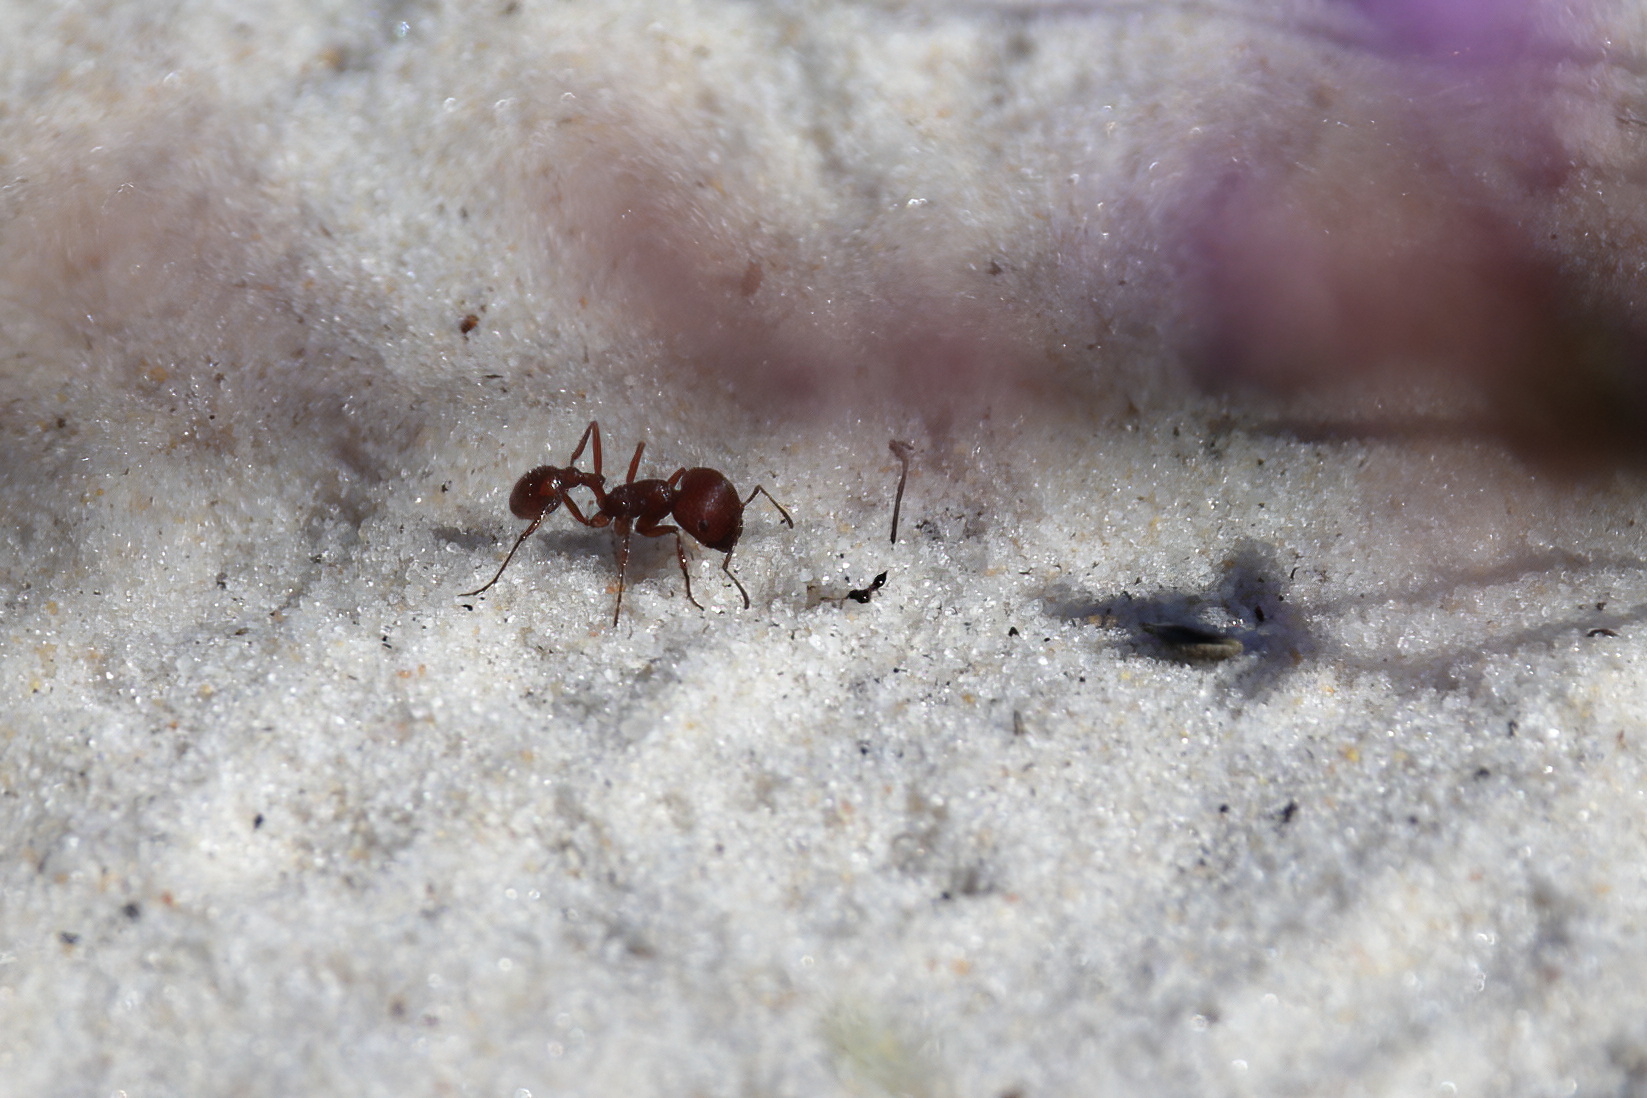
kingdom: Animalia
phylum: Arthropoda
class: Insecta
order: Hymenoptera
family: Formicidae
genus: Pogonomyrmex
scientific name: Pogonomyrmex badius
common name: Florida harvester ant
